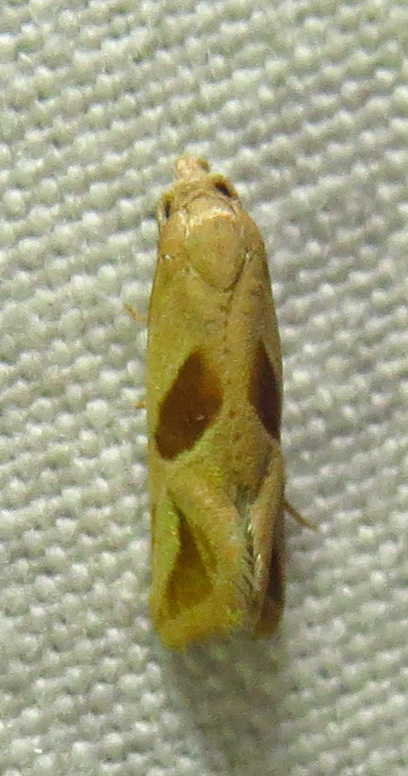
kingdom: Animalia
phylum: Arthropoda
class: Insecta
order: Lepidoptera
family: Tortricidae
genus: Eugnosta
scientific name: Eugnosta bimaculana
